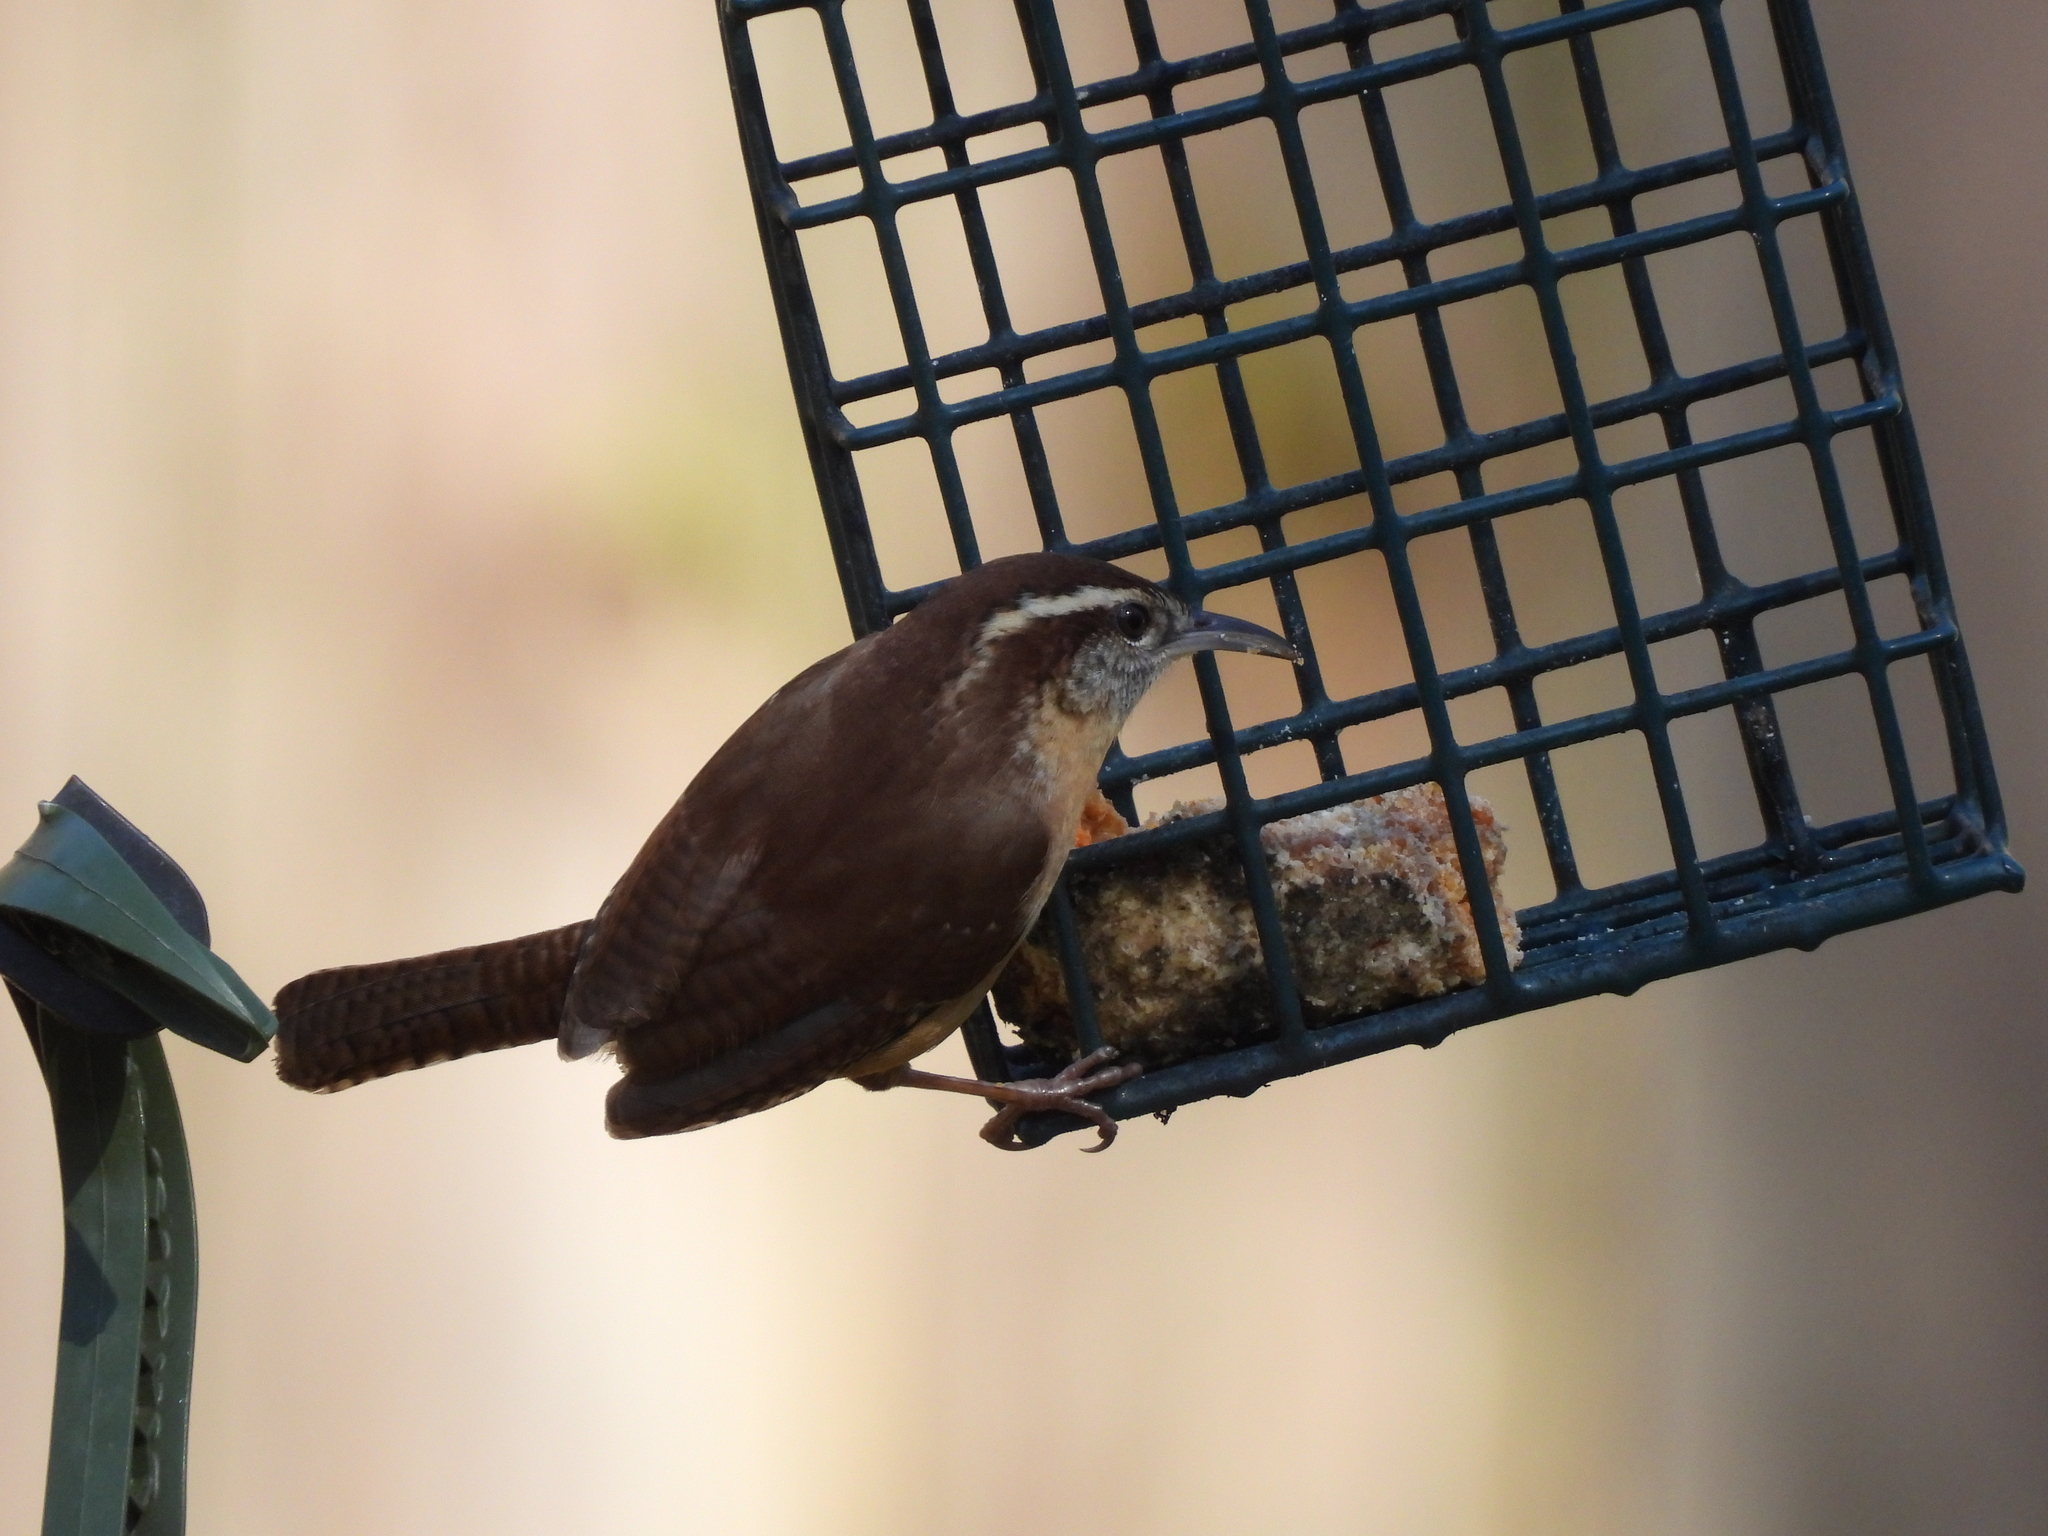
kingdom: Animalia
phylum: Chordata
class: Aves
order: Passeriformes
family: Troglodytidae
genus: Thryothorus
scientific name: Thryothorus ludovicianus
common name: Carolina wren
